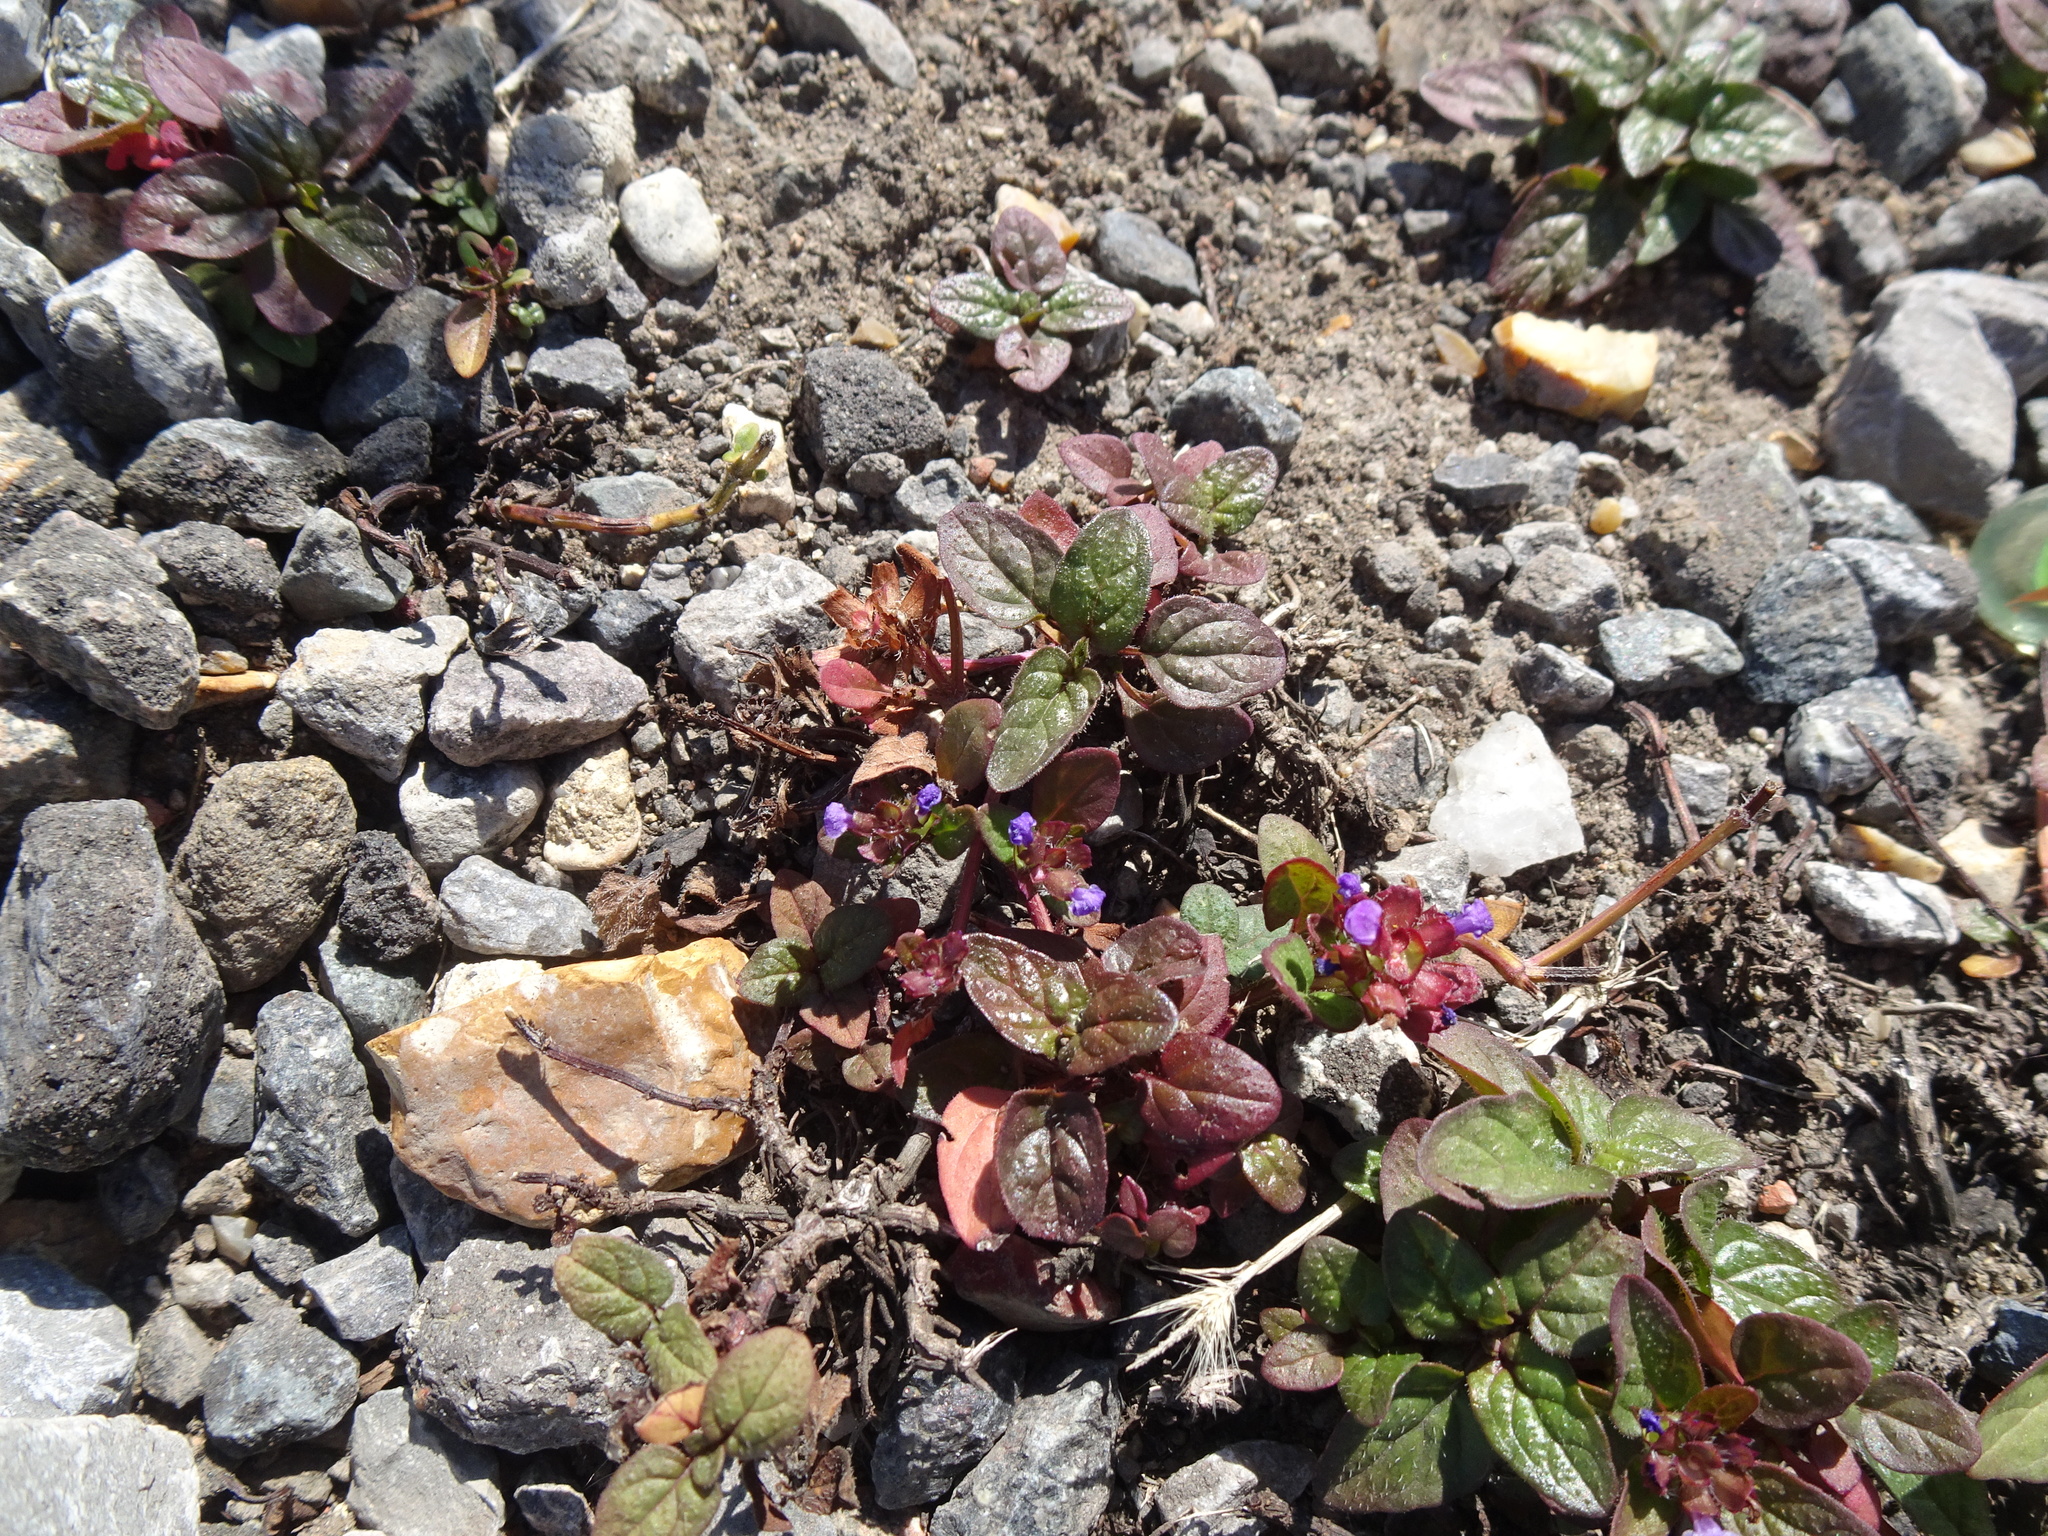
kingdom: Plantae
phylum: Tracheophyta
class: Magnoliopsida
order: Lamiales
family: Lamiaceae
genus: Prunella
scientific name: Prunella vulgaris
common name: Heal-all
